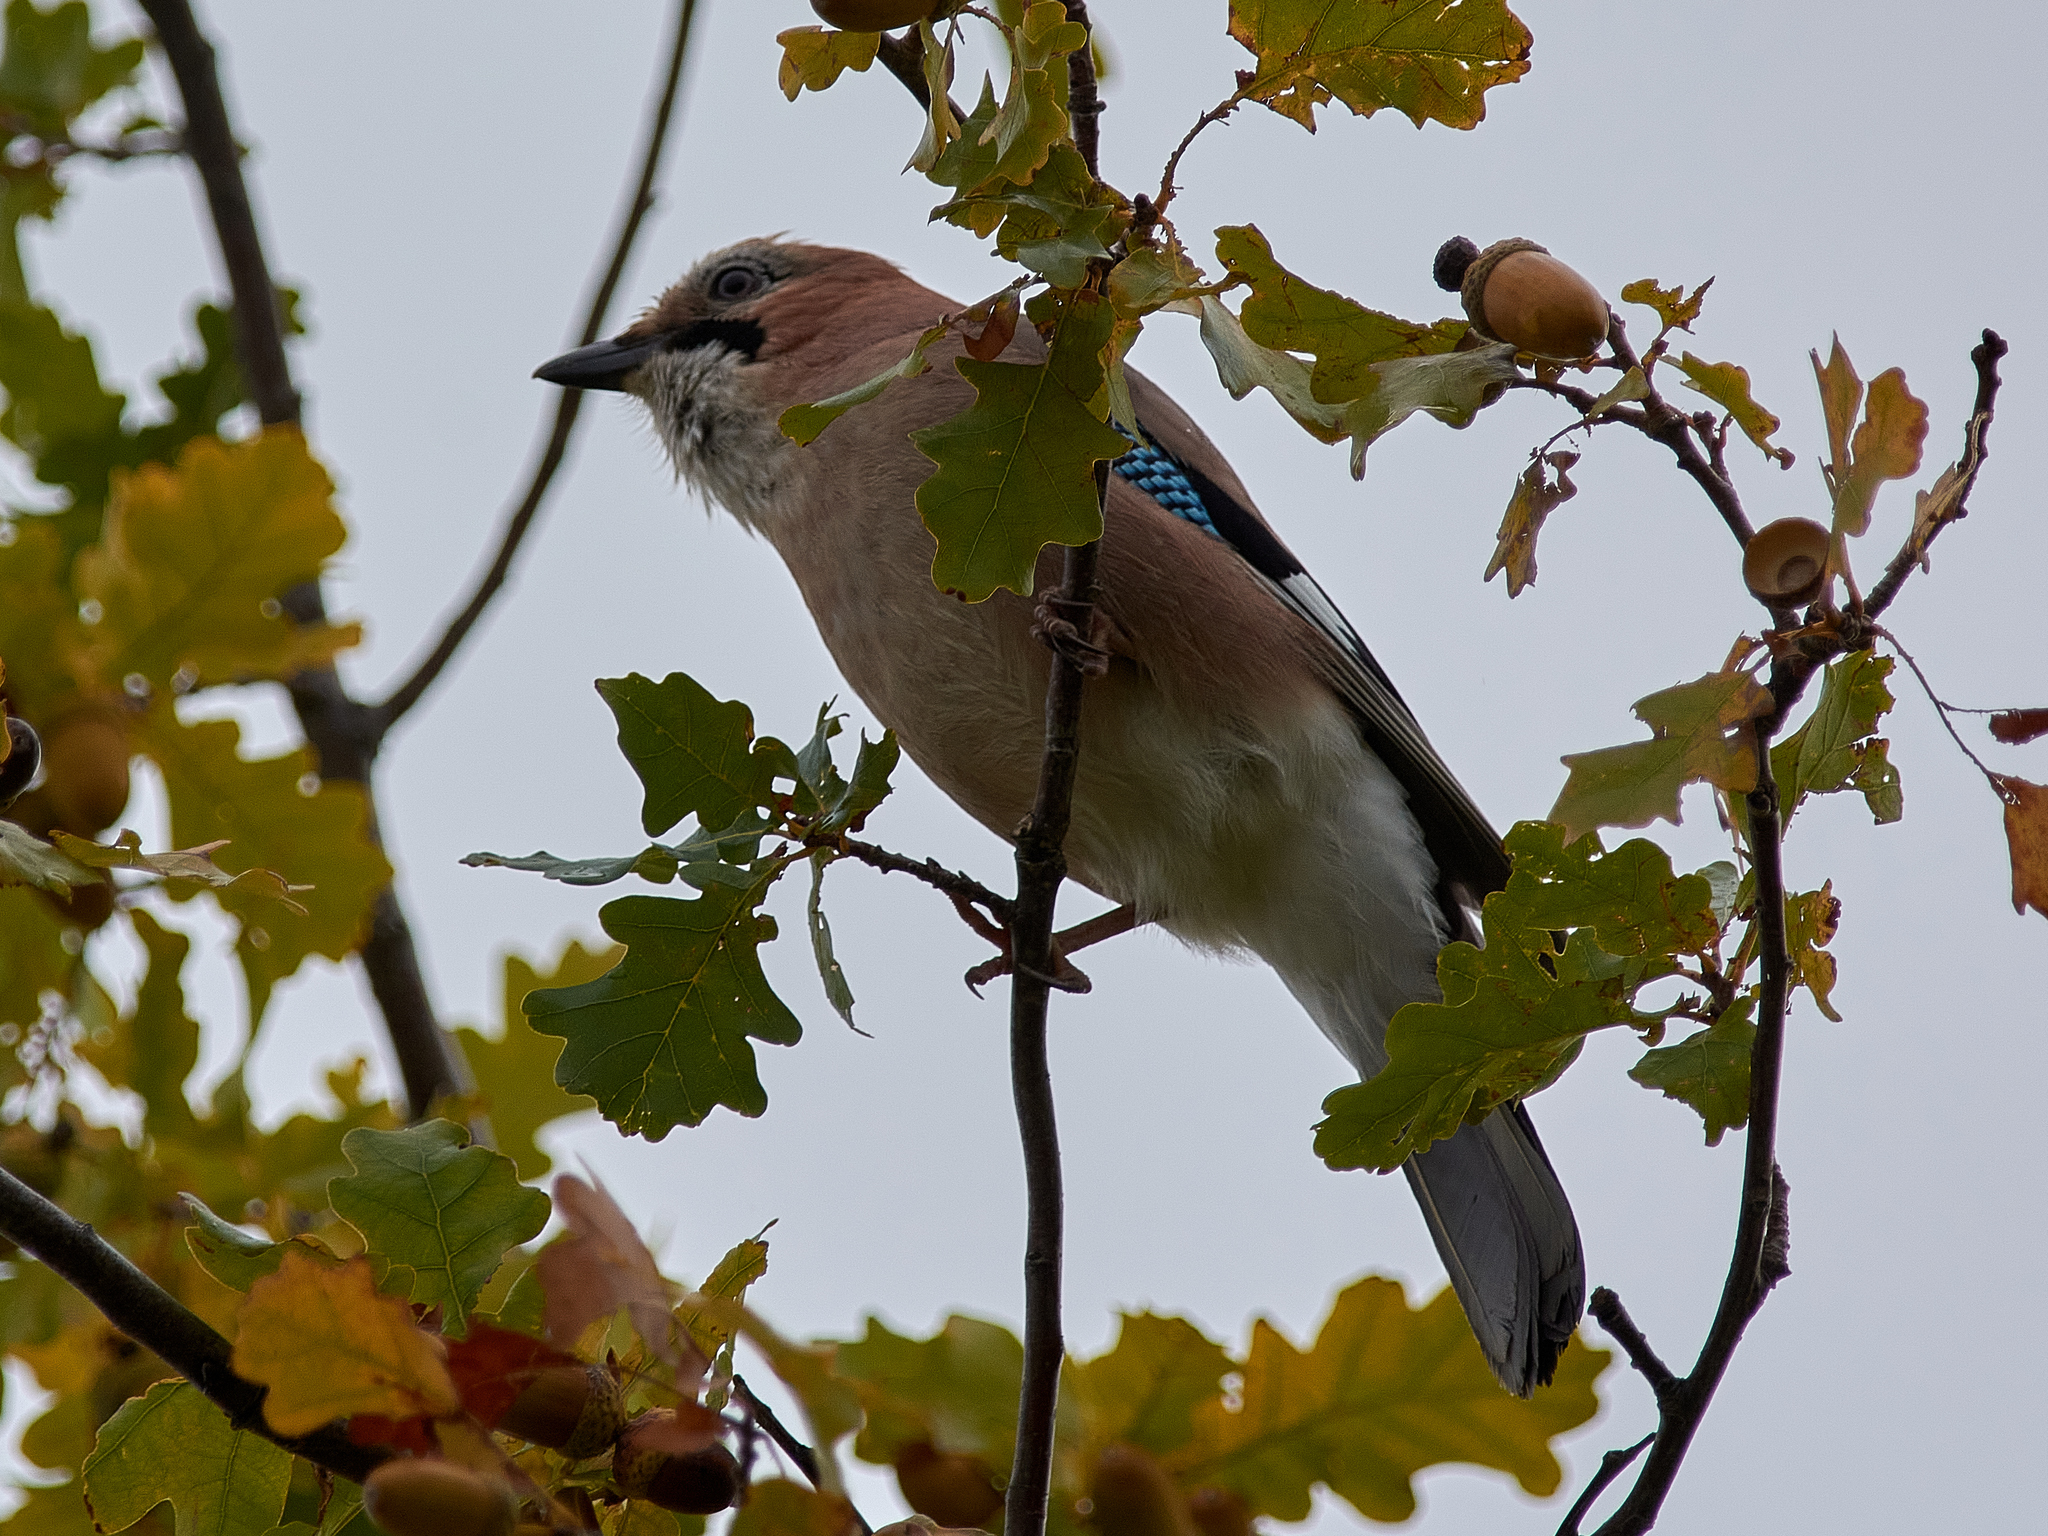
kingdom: Animalia
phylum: Chordata
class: Aves
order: Passeriformes
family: Corvidae
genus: Garrulus
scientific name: Garrulus glandarius
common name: Eurasian jay
